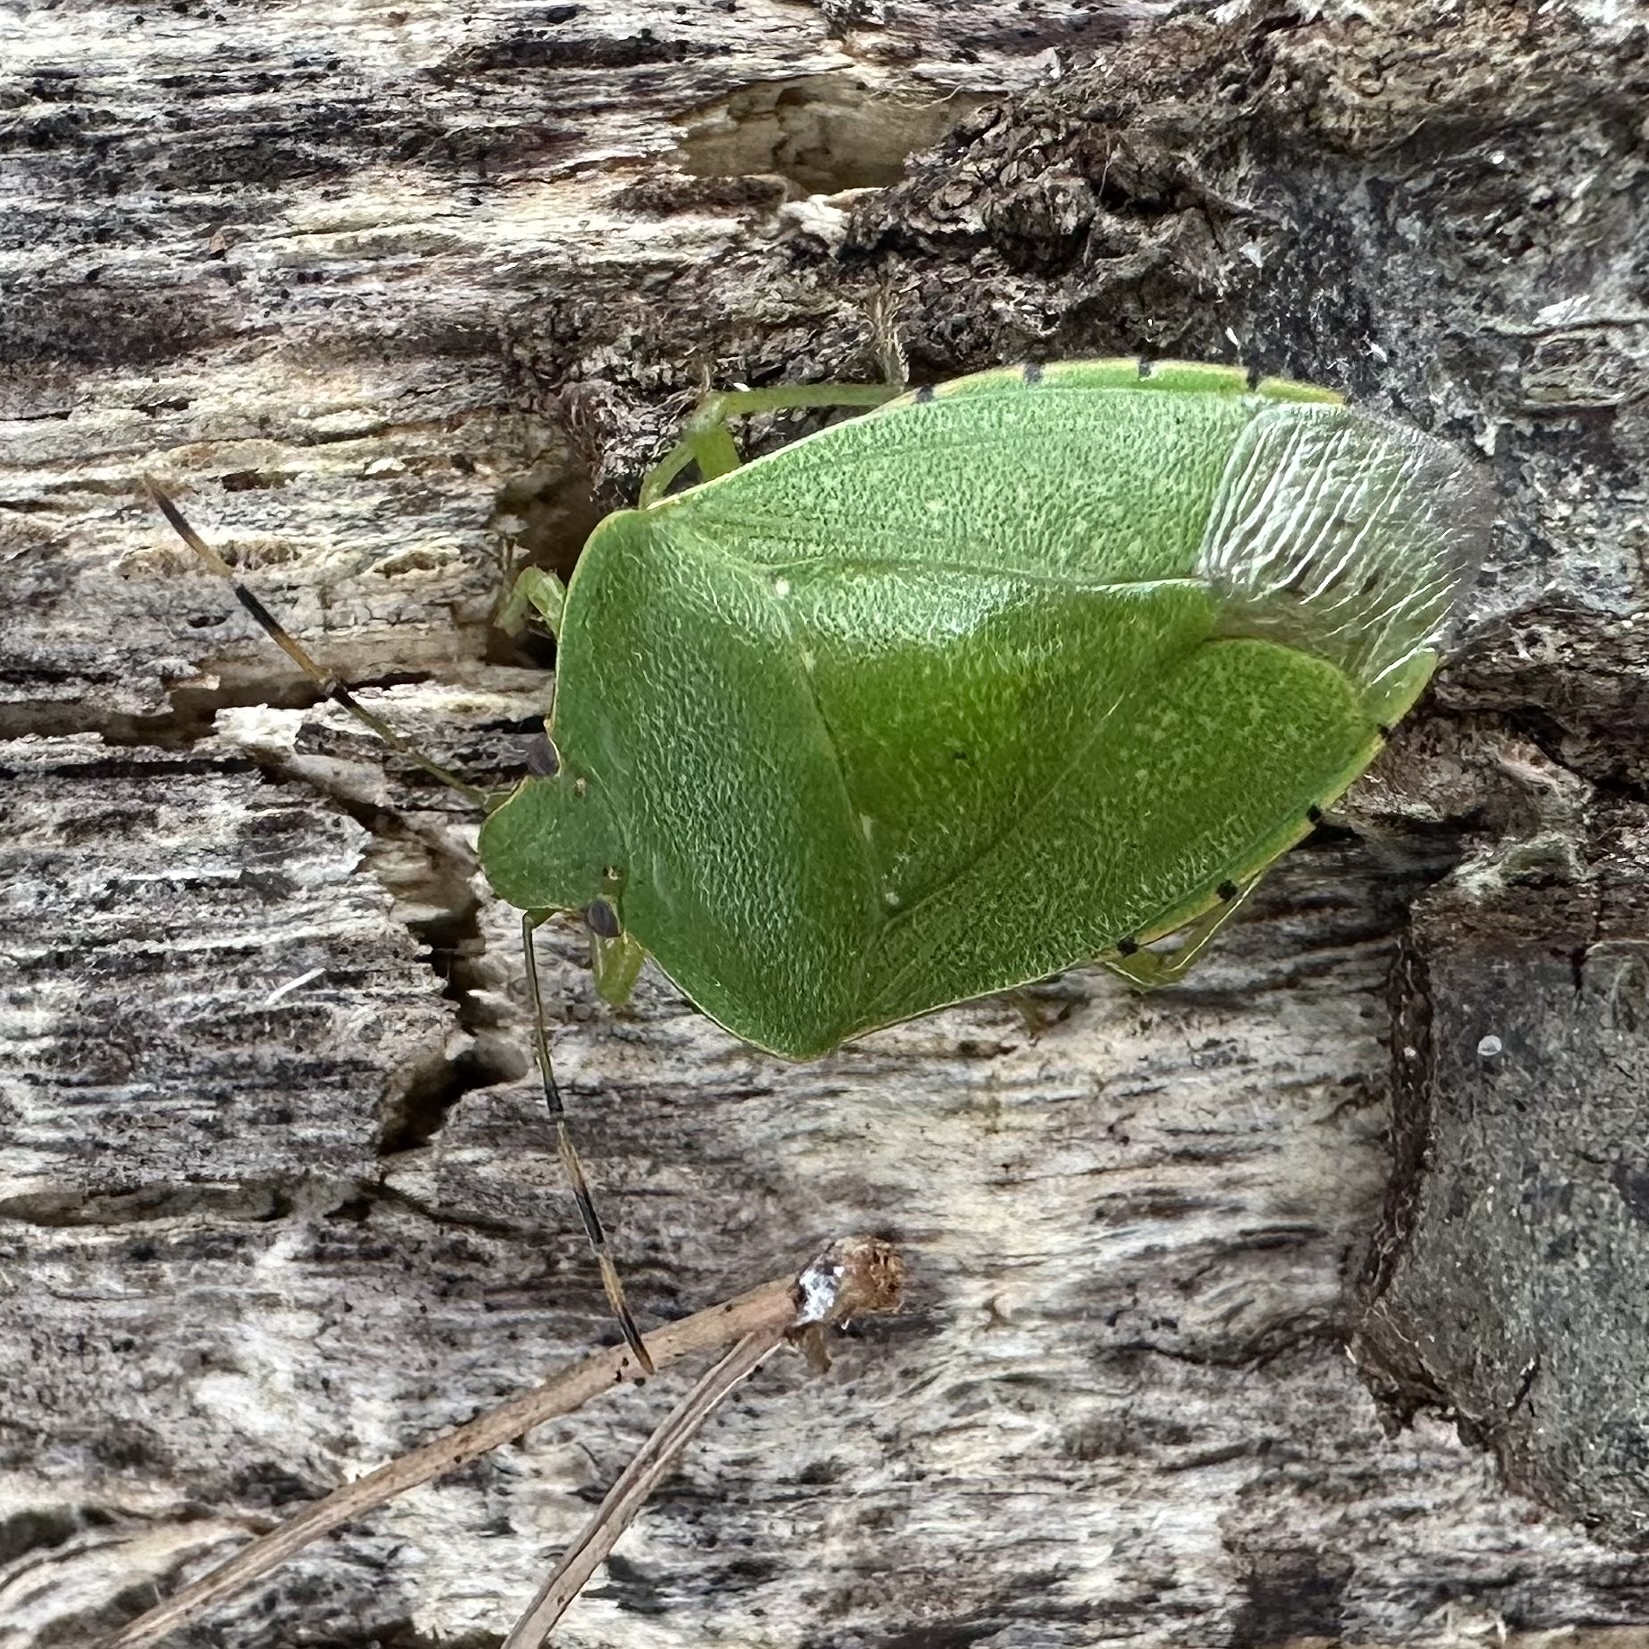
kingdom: Animalia
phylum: Arthropoda
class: Insecta
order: Hemiptera
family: Pentatomidae
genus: Chinavia
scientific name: Chinavia hilaris
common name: Green stink bug
